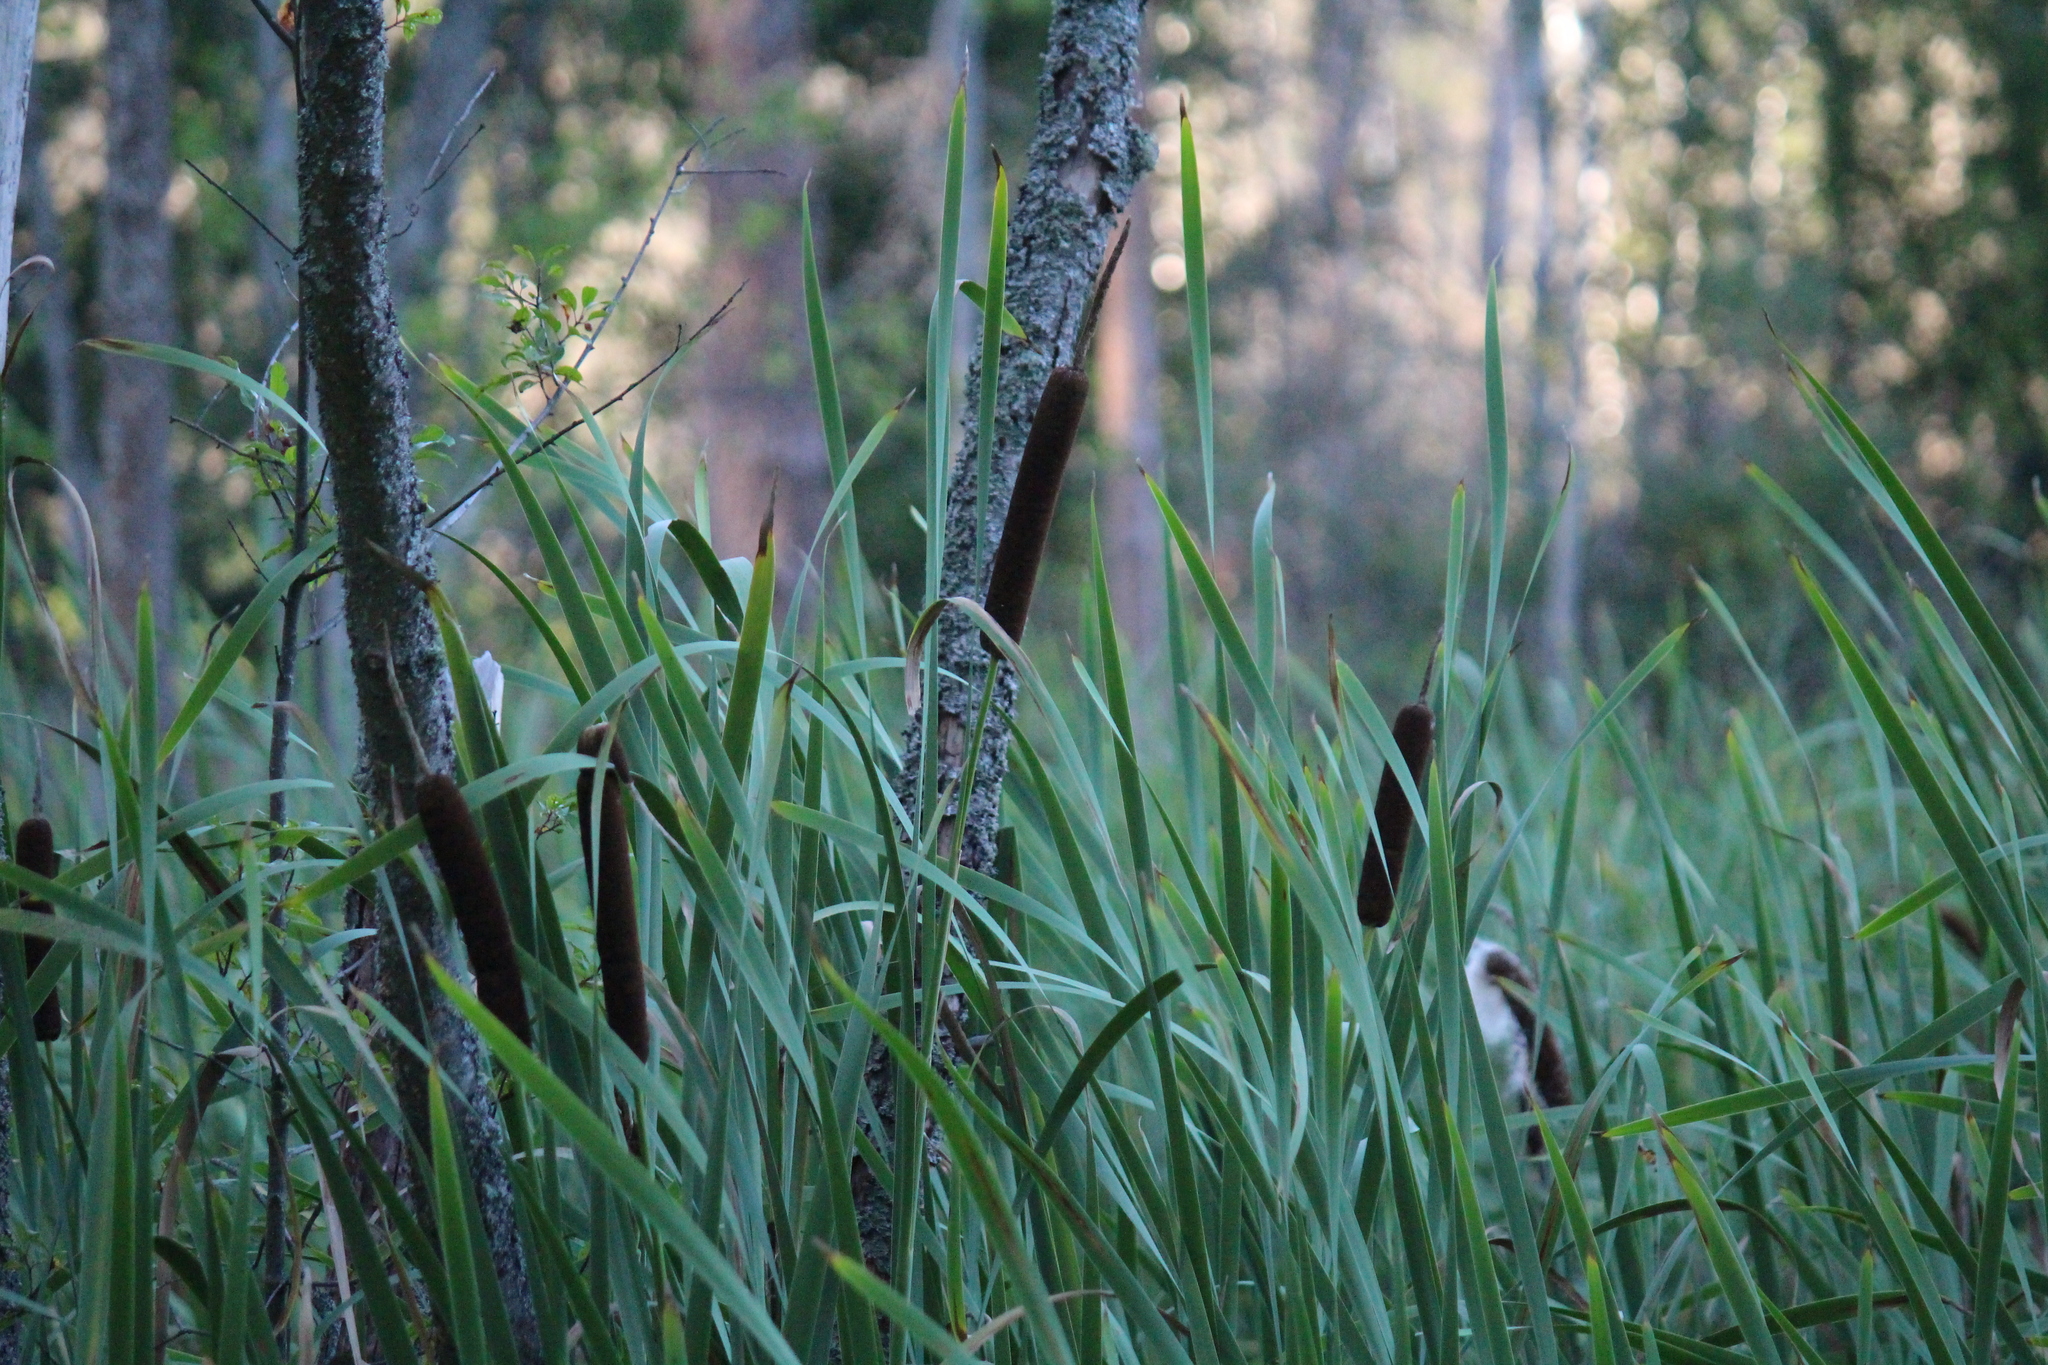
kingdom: Plantae
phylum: Tracheophyta
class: Liliopsida
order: Poales
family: Typhaceae
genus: Typha
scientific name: Typha latifolia
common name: Broadleaf cattail
